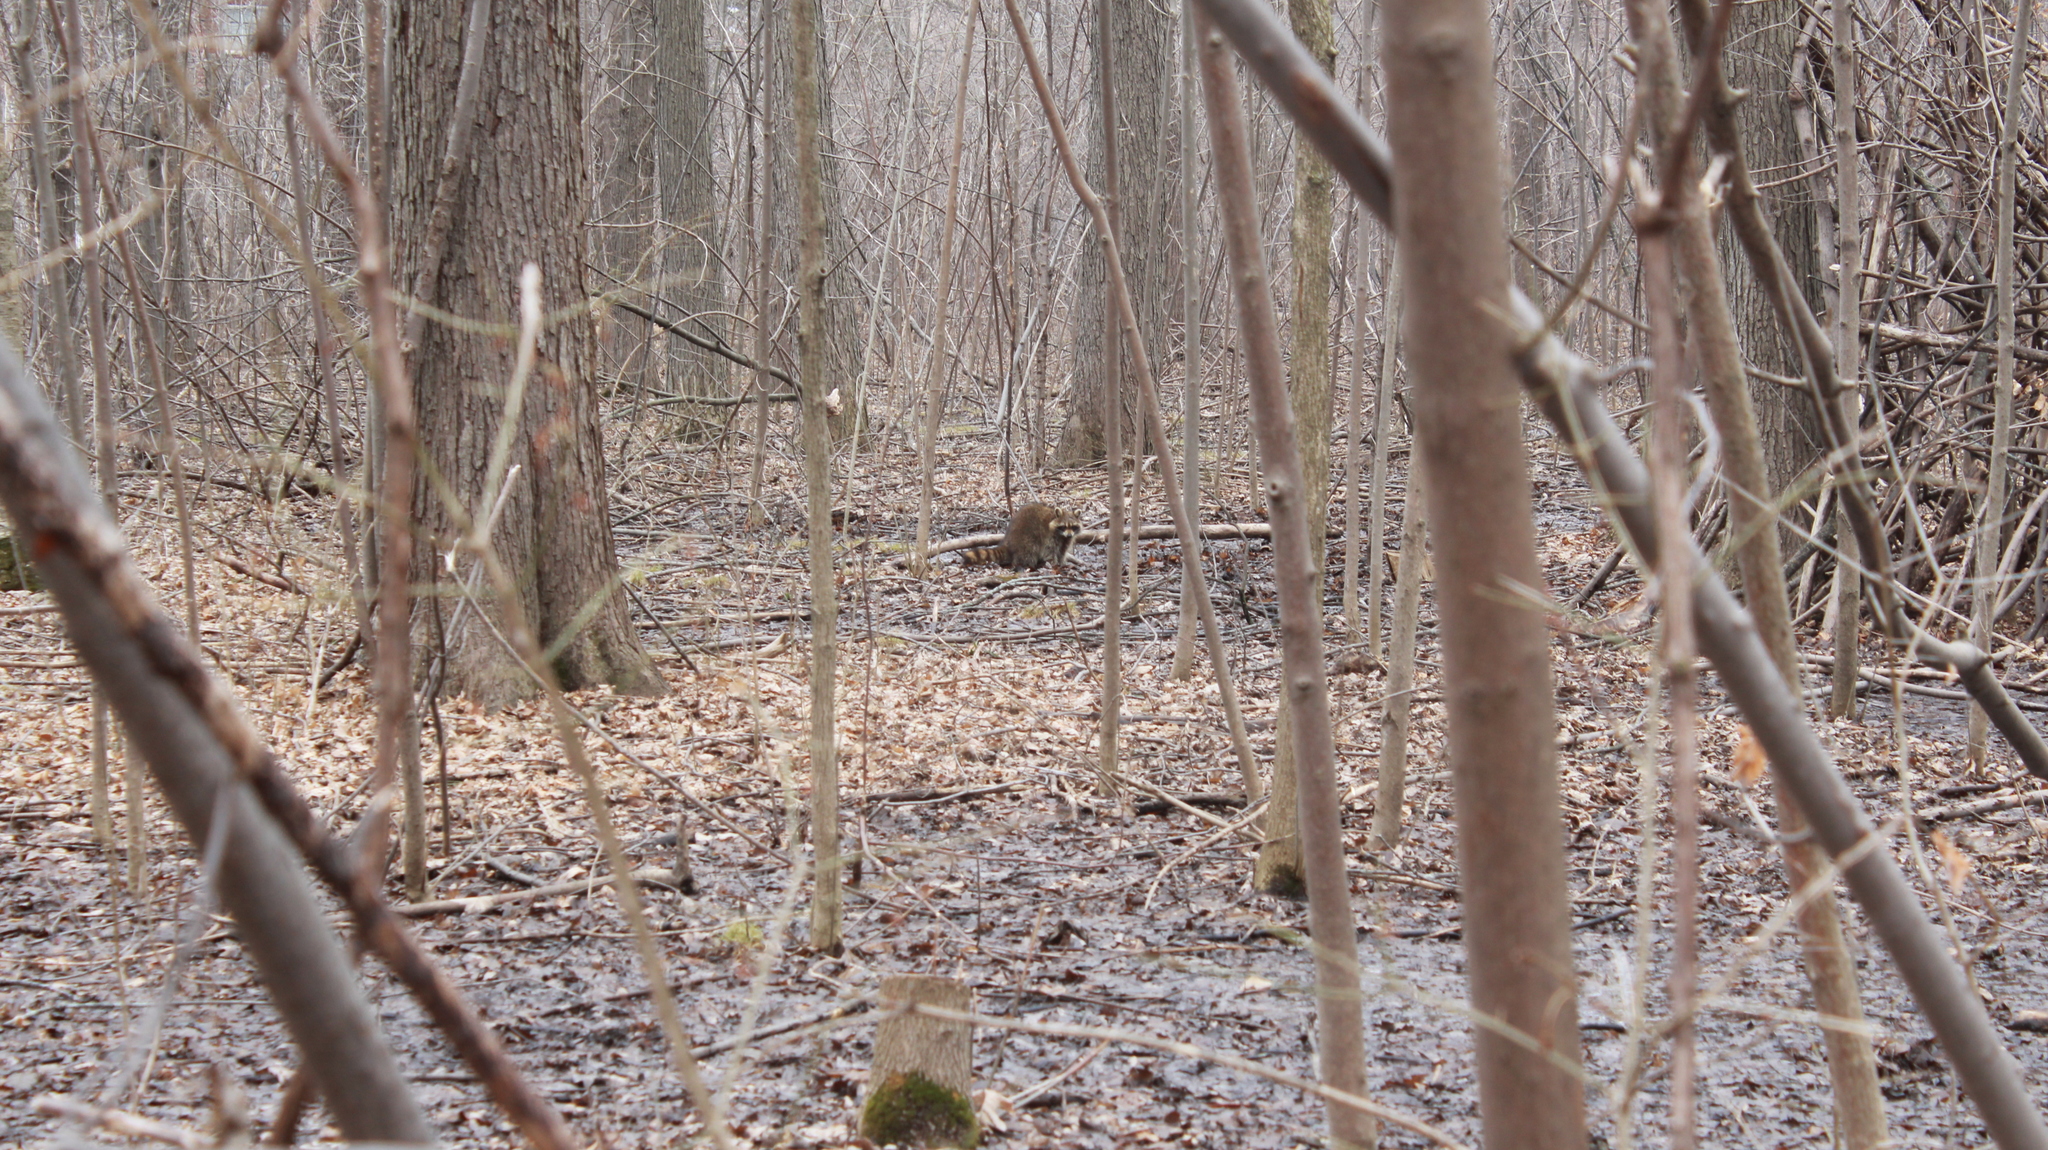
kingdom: Animalia
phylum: Chordata
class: Mammalia
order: Carnivora
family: Procyonidae
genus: Procyon
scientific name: Procyon lotor
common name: Raccoon
